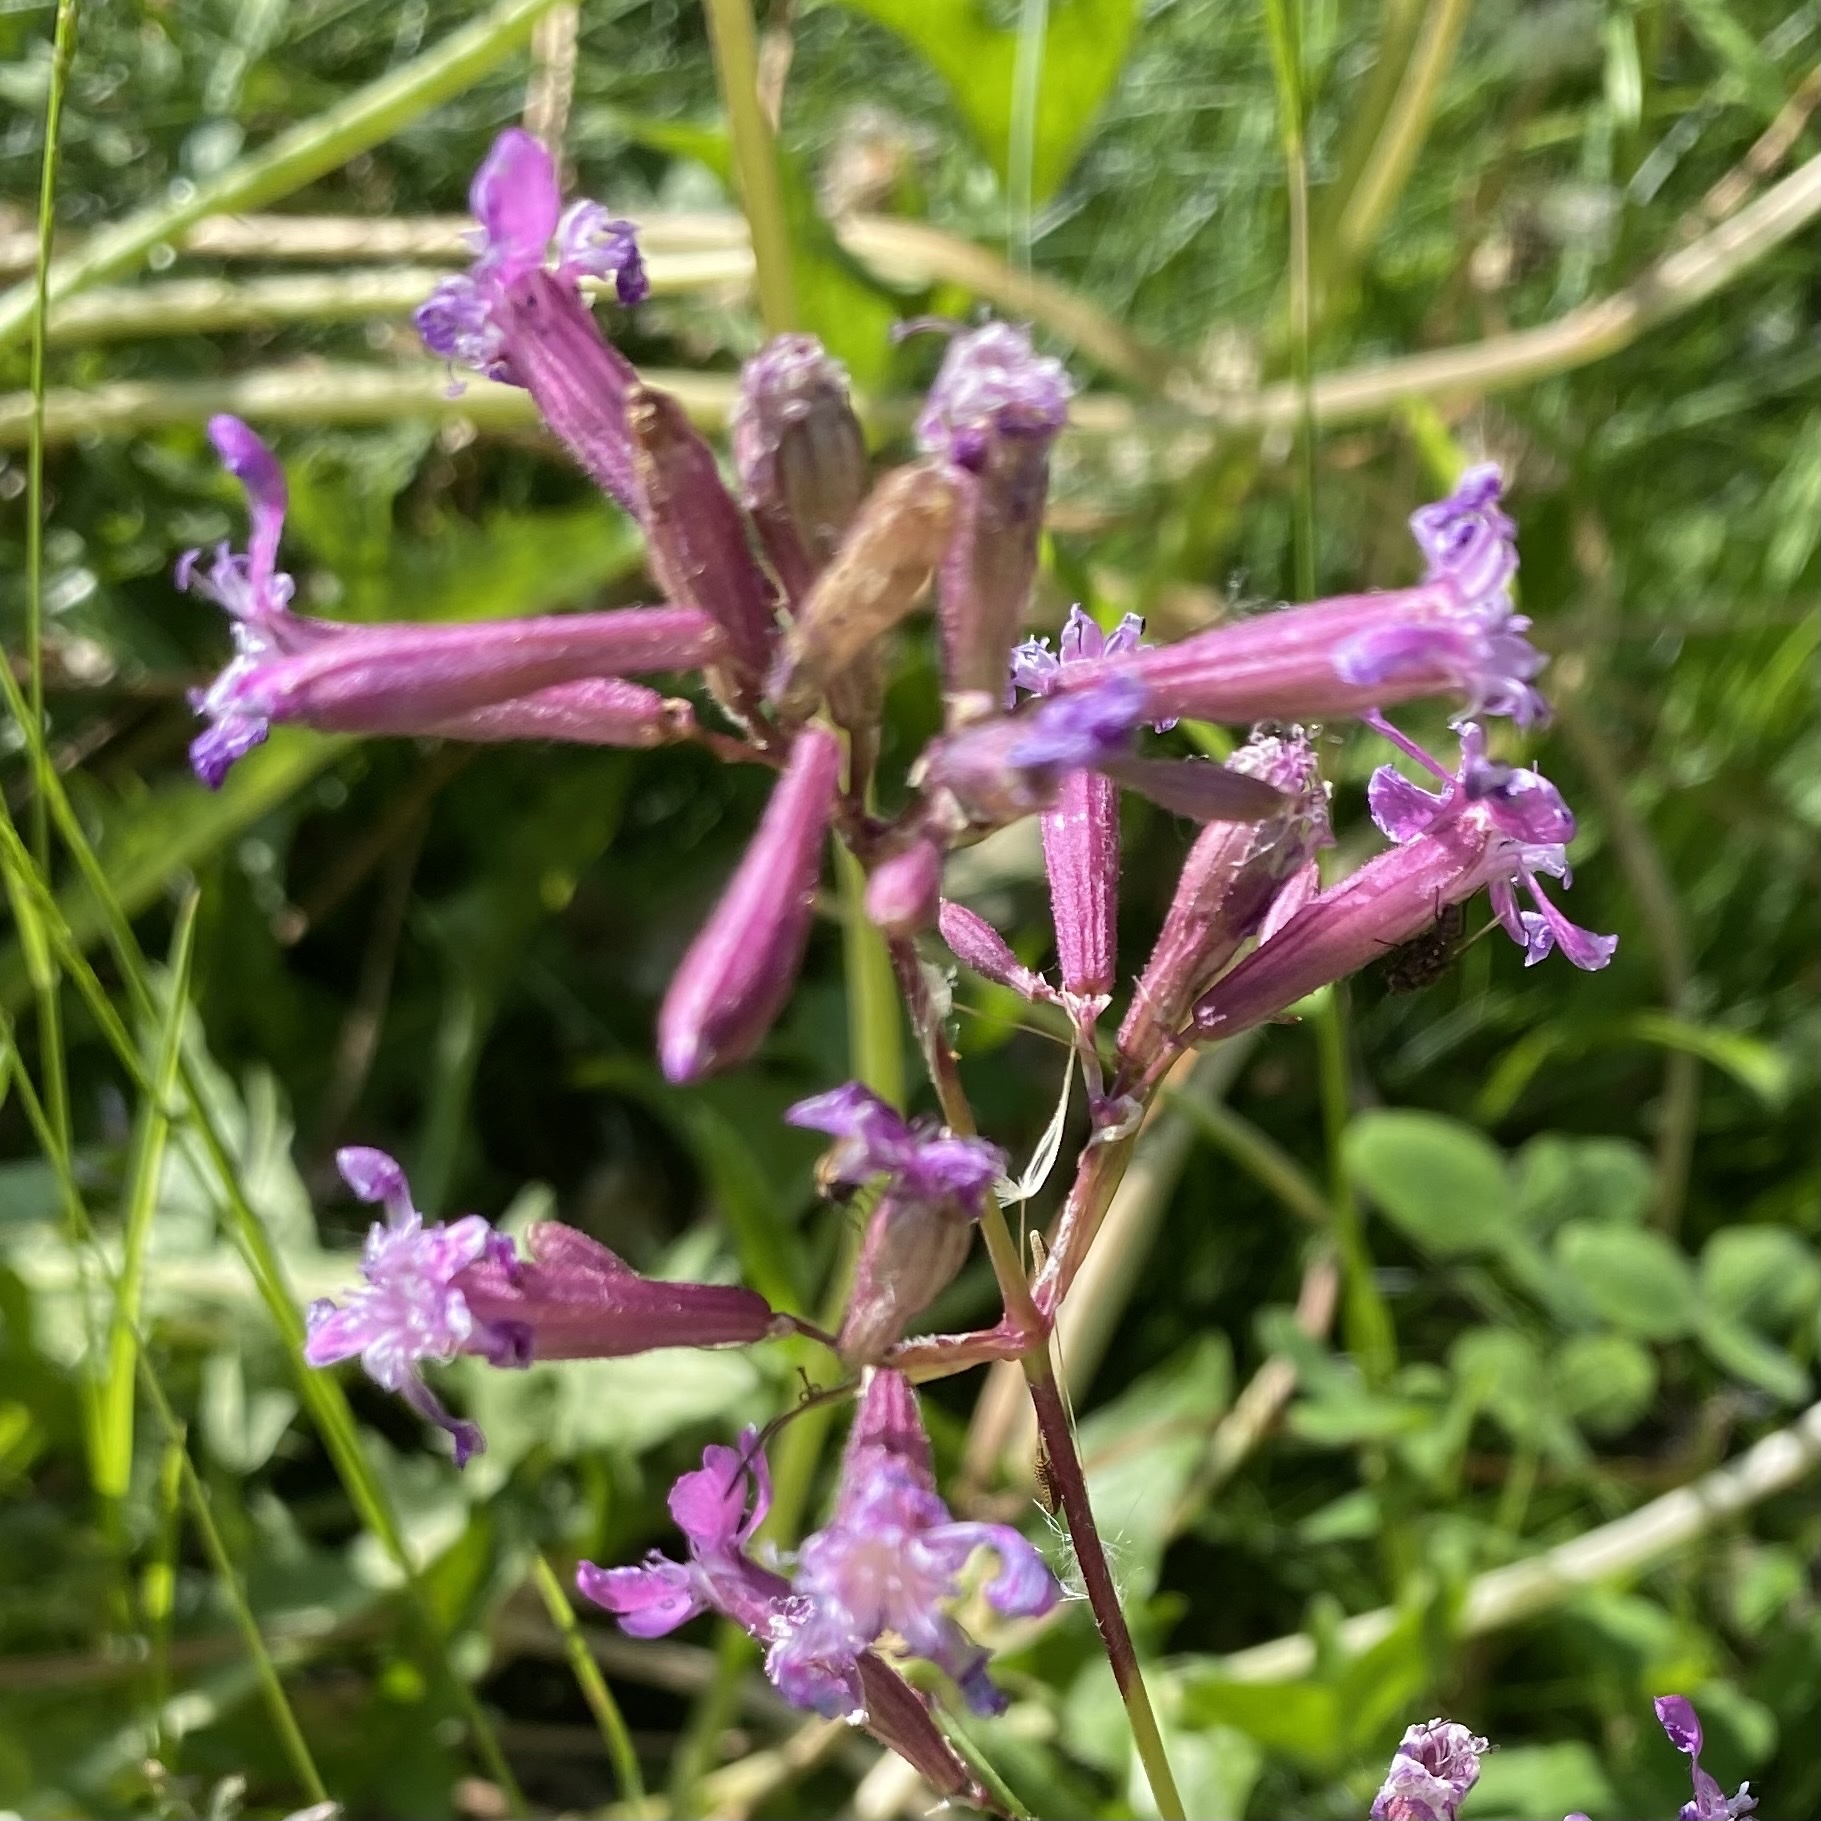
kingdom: Plantae
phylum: Tracheophyta
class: Magnoliopsida
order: Caryophyllales
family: Caryophyllaceae
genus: Viscaria
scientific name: Viscaria vulgaris
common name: Clammy campion
